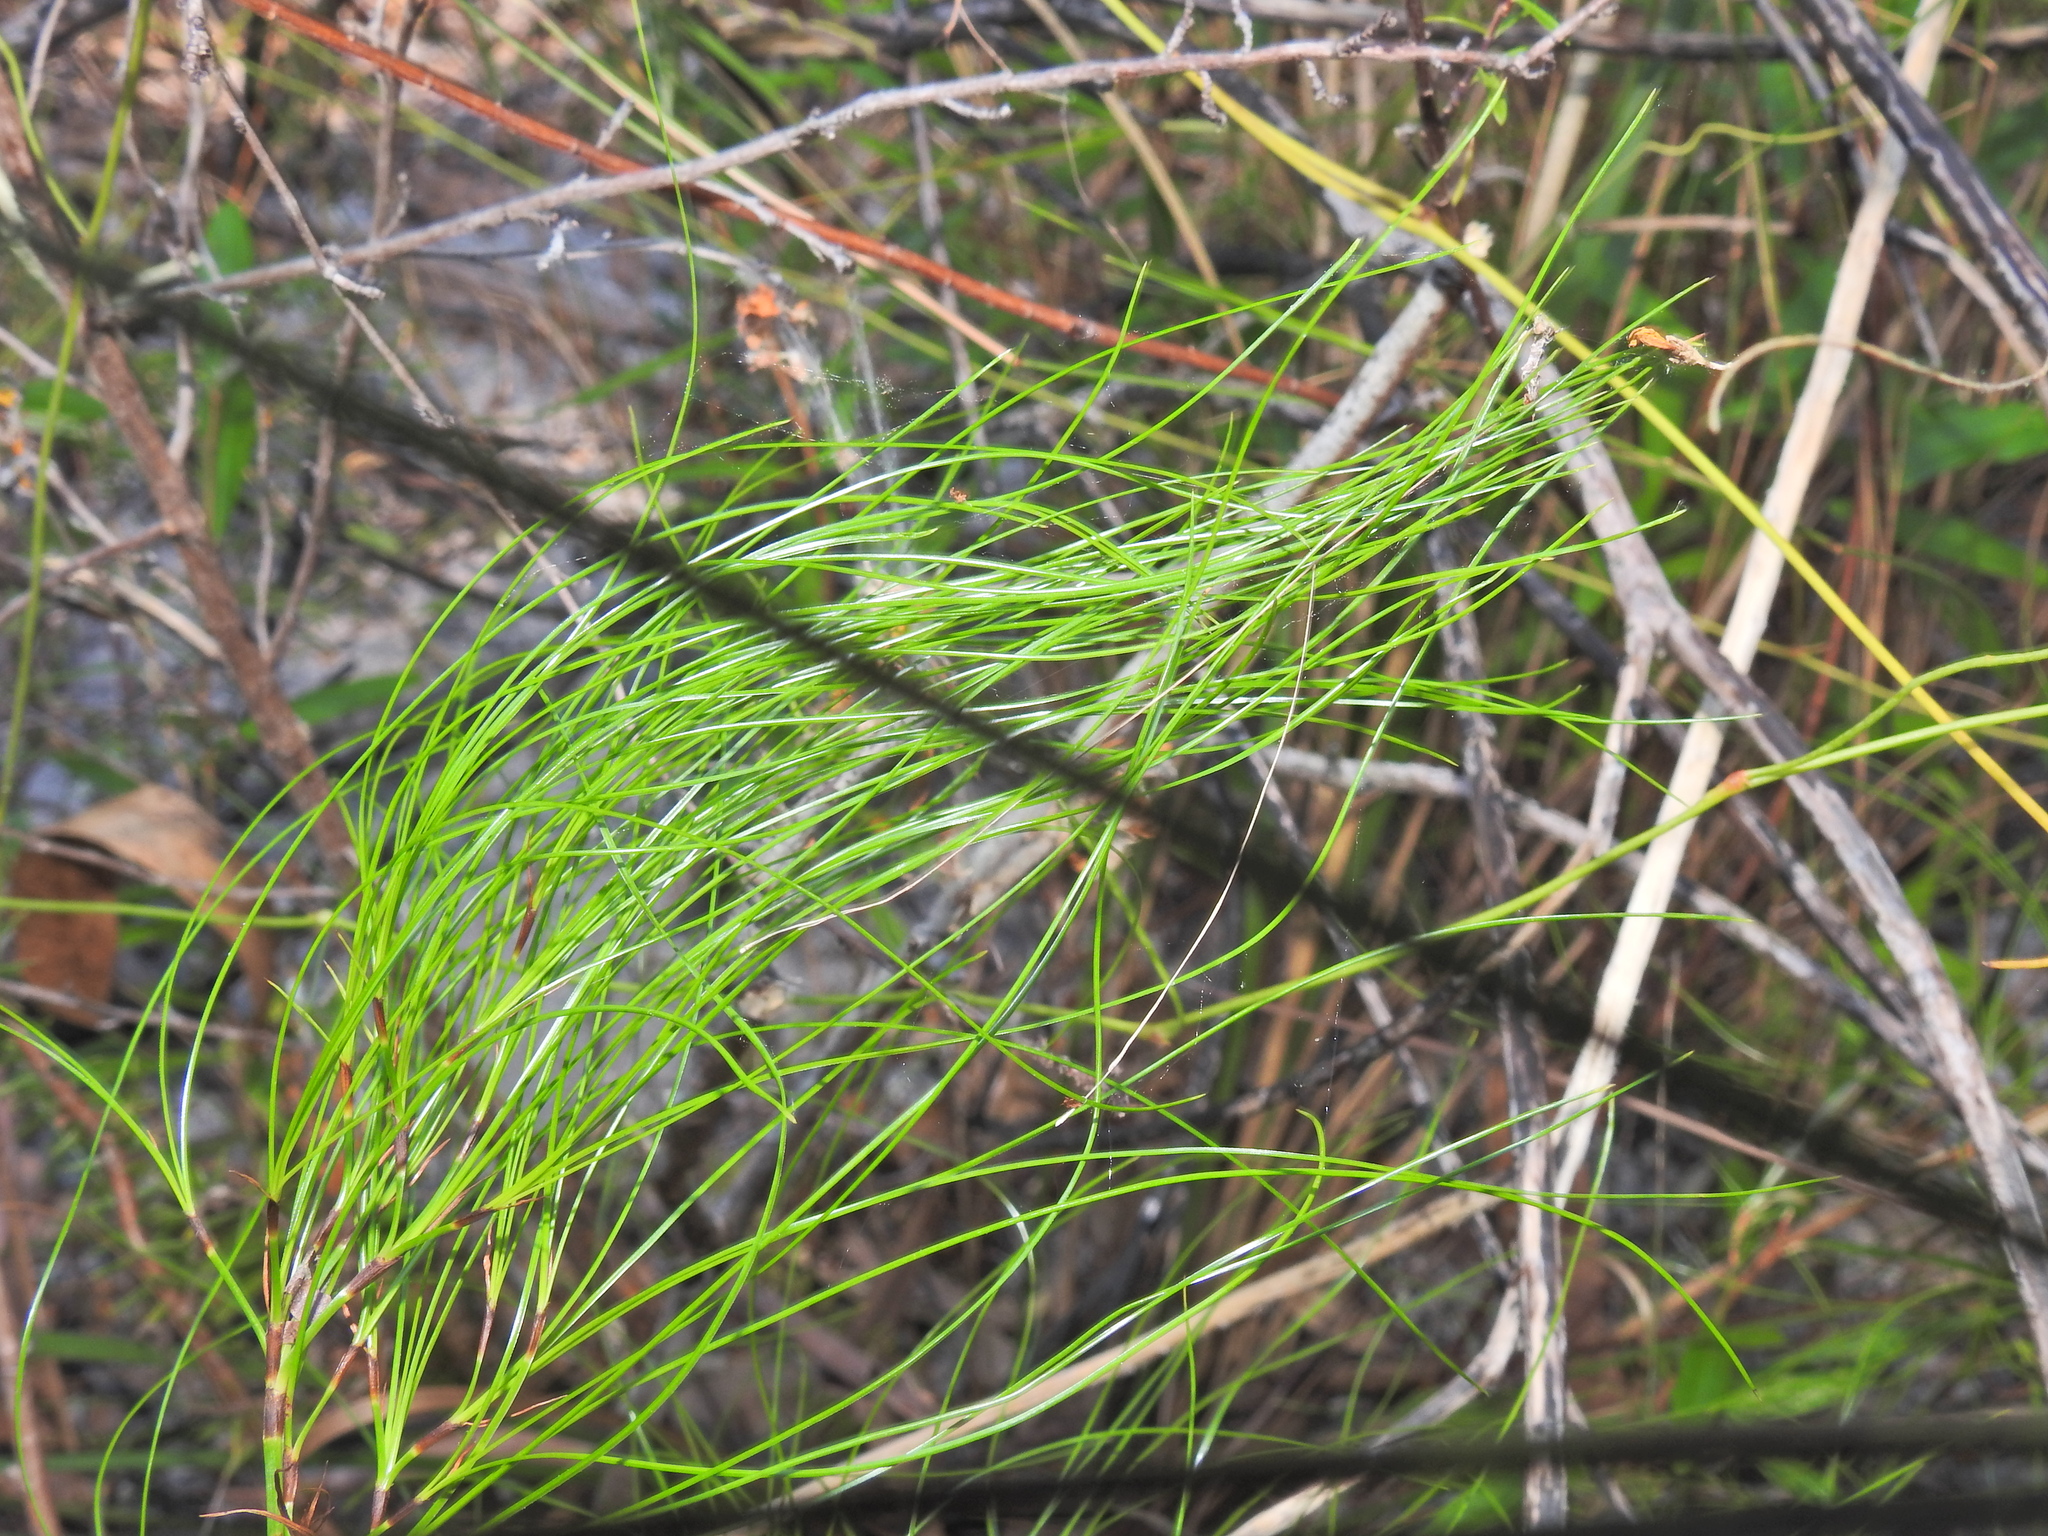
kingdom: Plantae
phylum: Tracheophyta
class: Liliopsida
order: Poales
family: Cyperaceae
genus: Caustis
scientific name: Caustis blakei
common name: Foxtail-fern
